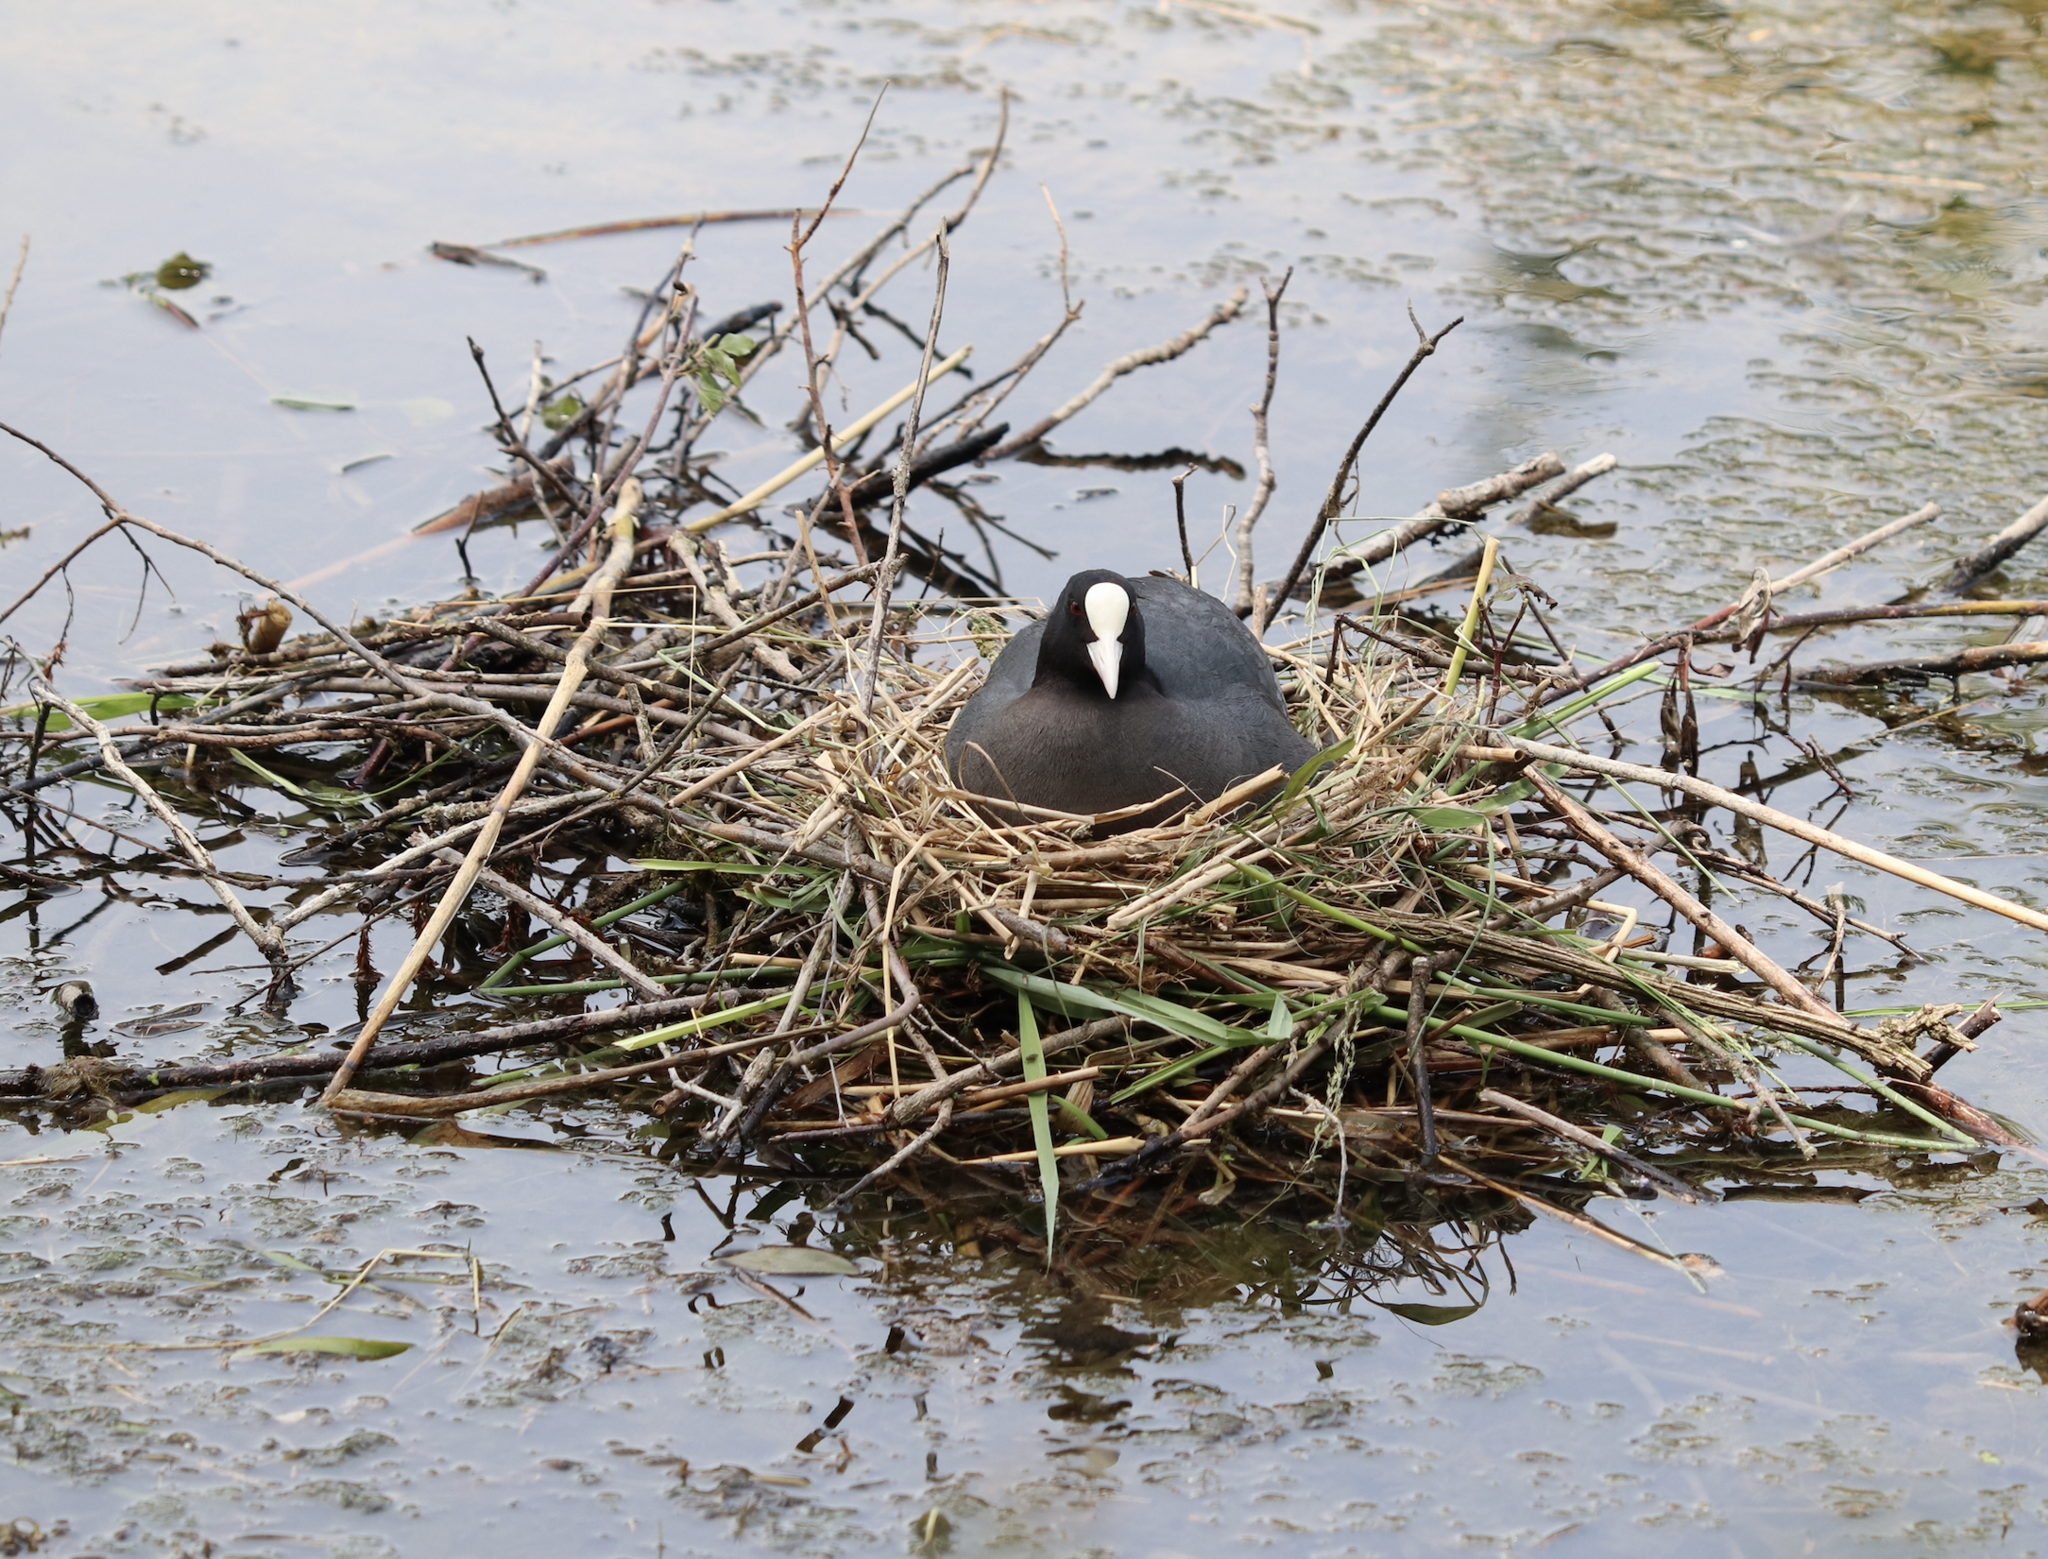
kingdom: Animalia
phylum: Chordata
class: Aves
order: Gruiformes
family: Rallidae
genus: Fulica
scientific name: Fulica atra
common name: Eurasian coot
